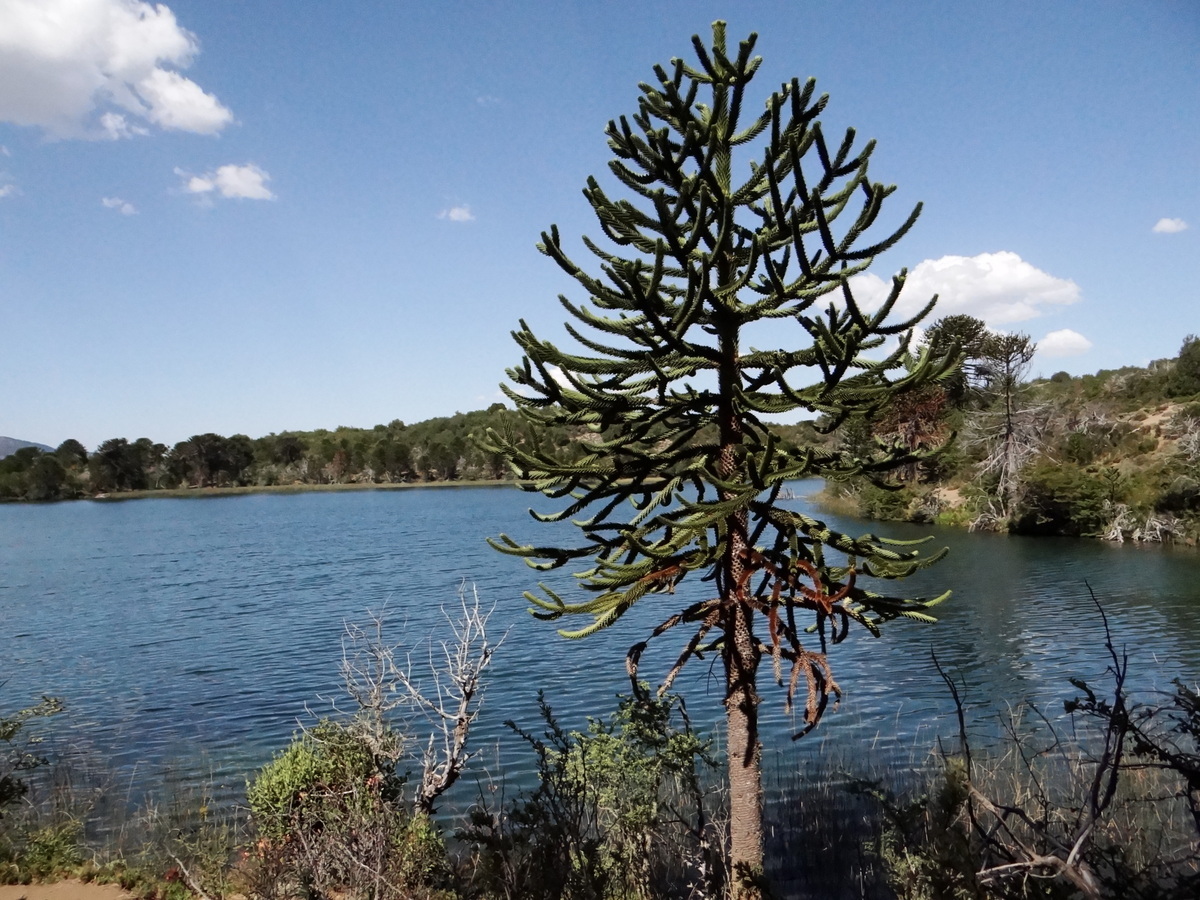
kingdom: Plantae
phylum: Tracheophyta
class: Pinopsida
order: Pinales
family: Araucariaceae
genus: Araucaria
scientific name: Araucaria araucana
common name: Monkey-puzzle
